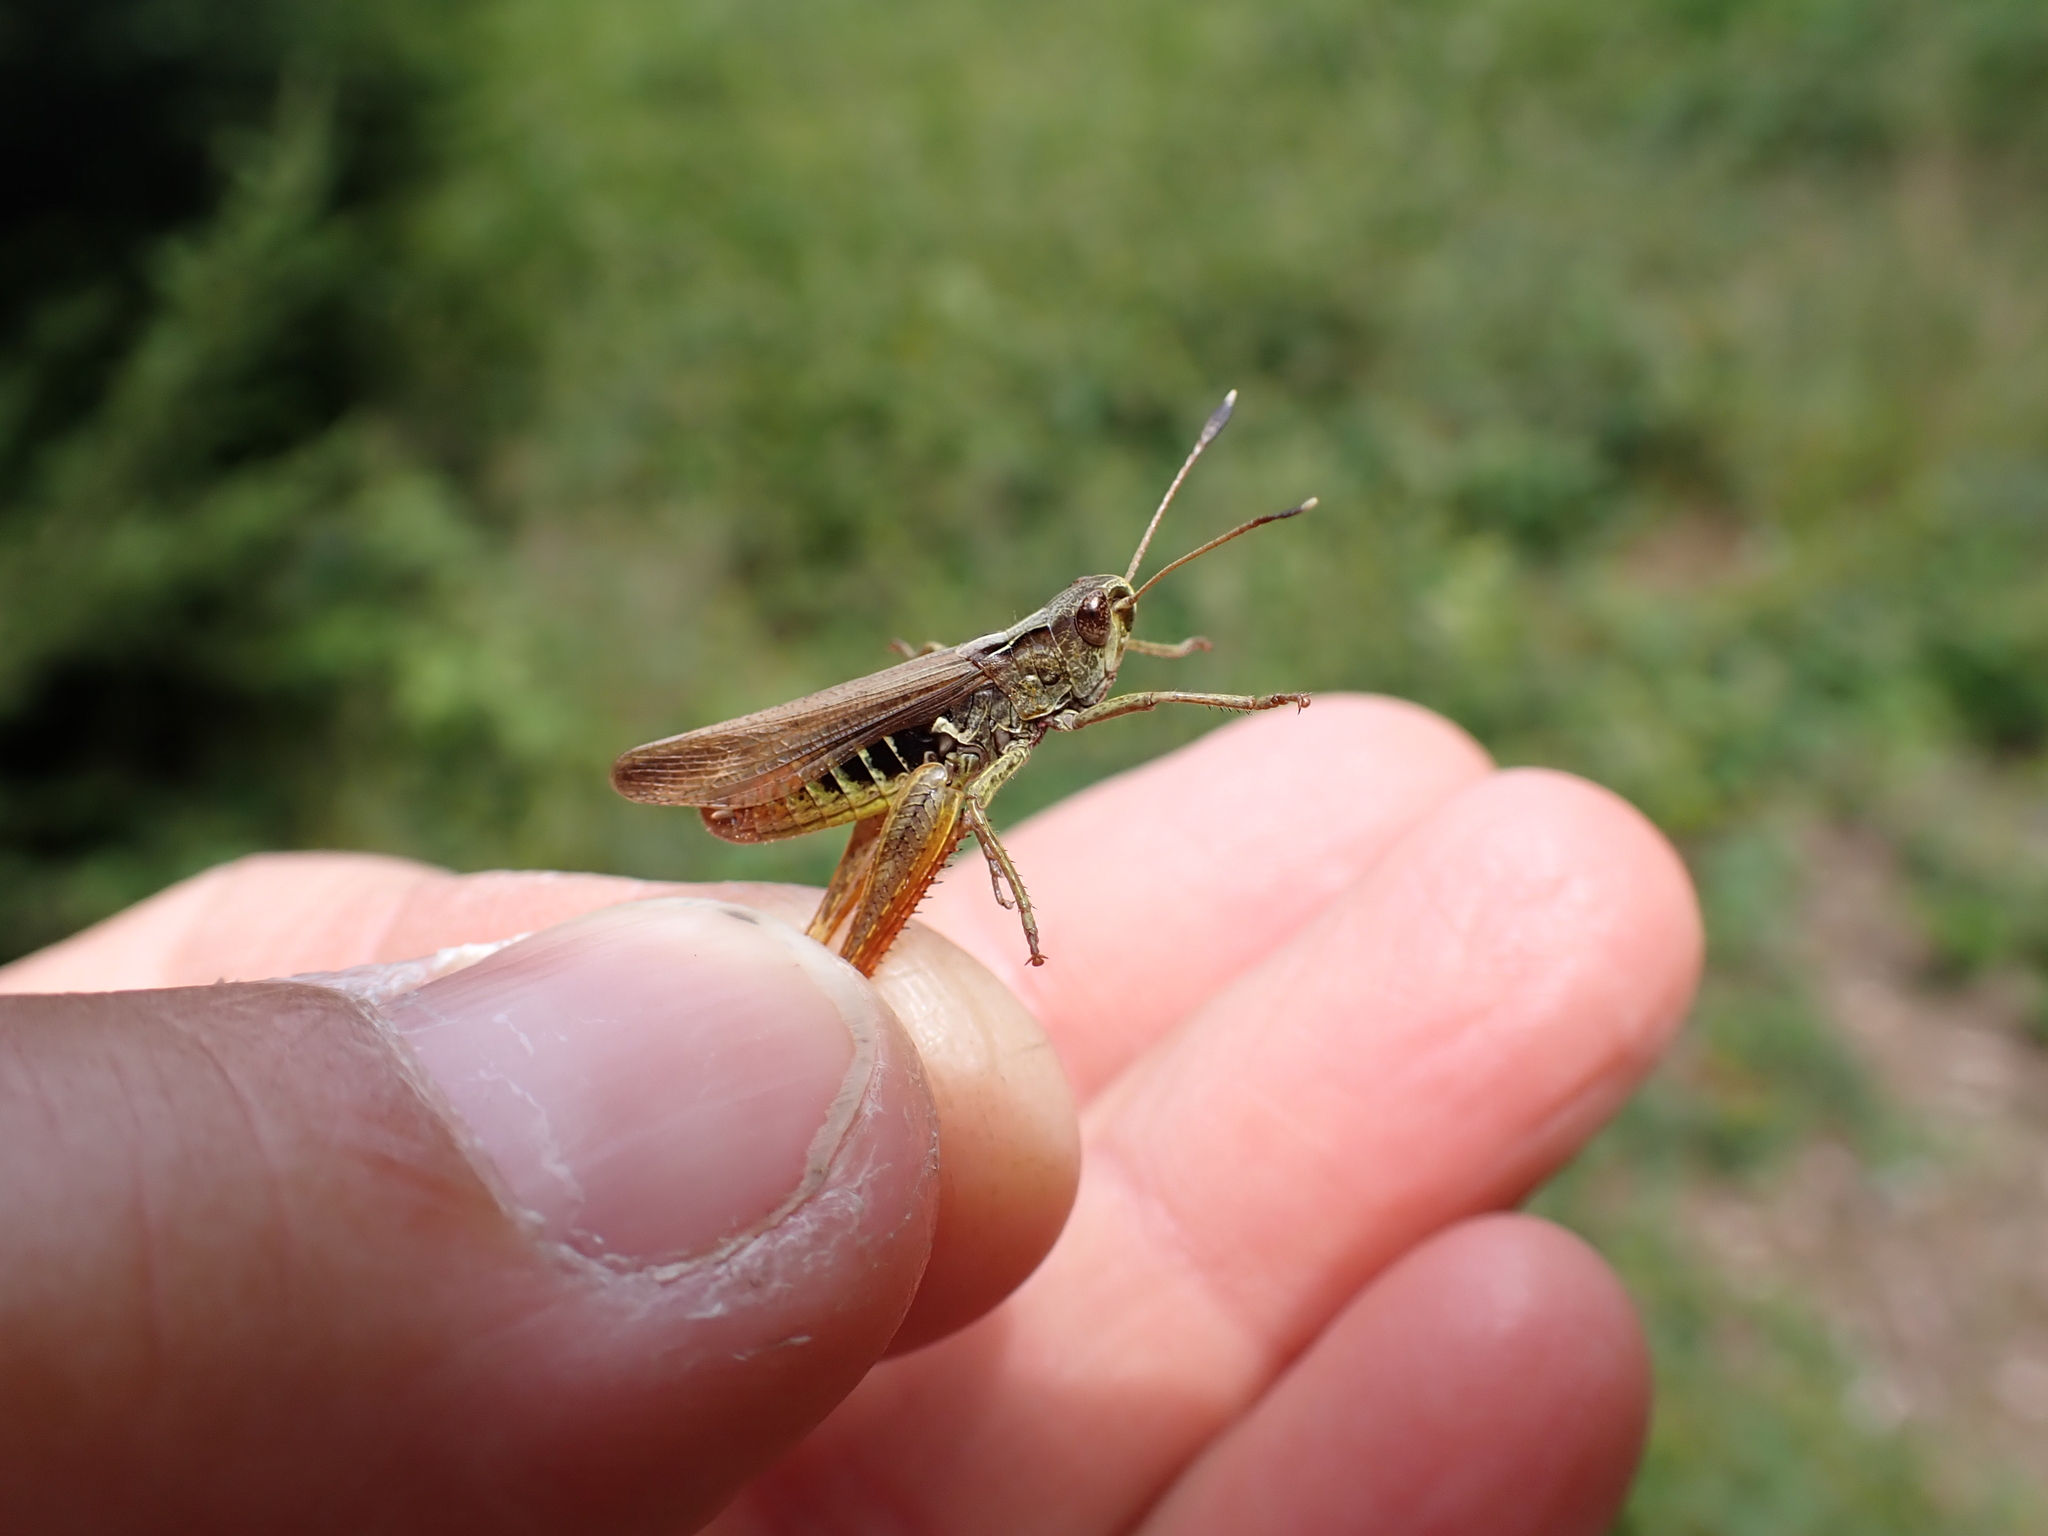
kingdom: Animalia
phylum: Arthropoda
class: Insecta
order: Orthoptera
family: Acrididae
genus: Gomphocerippus
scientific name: Gomphocerippus rufus
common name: Rufous grasshopper
